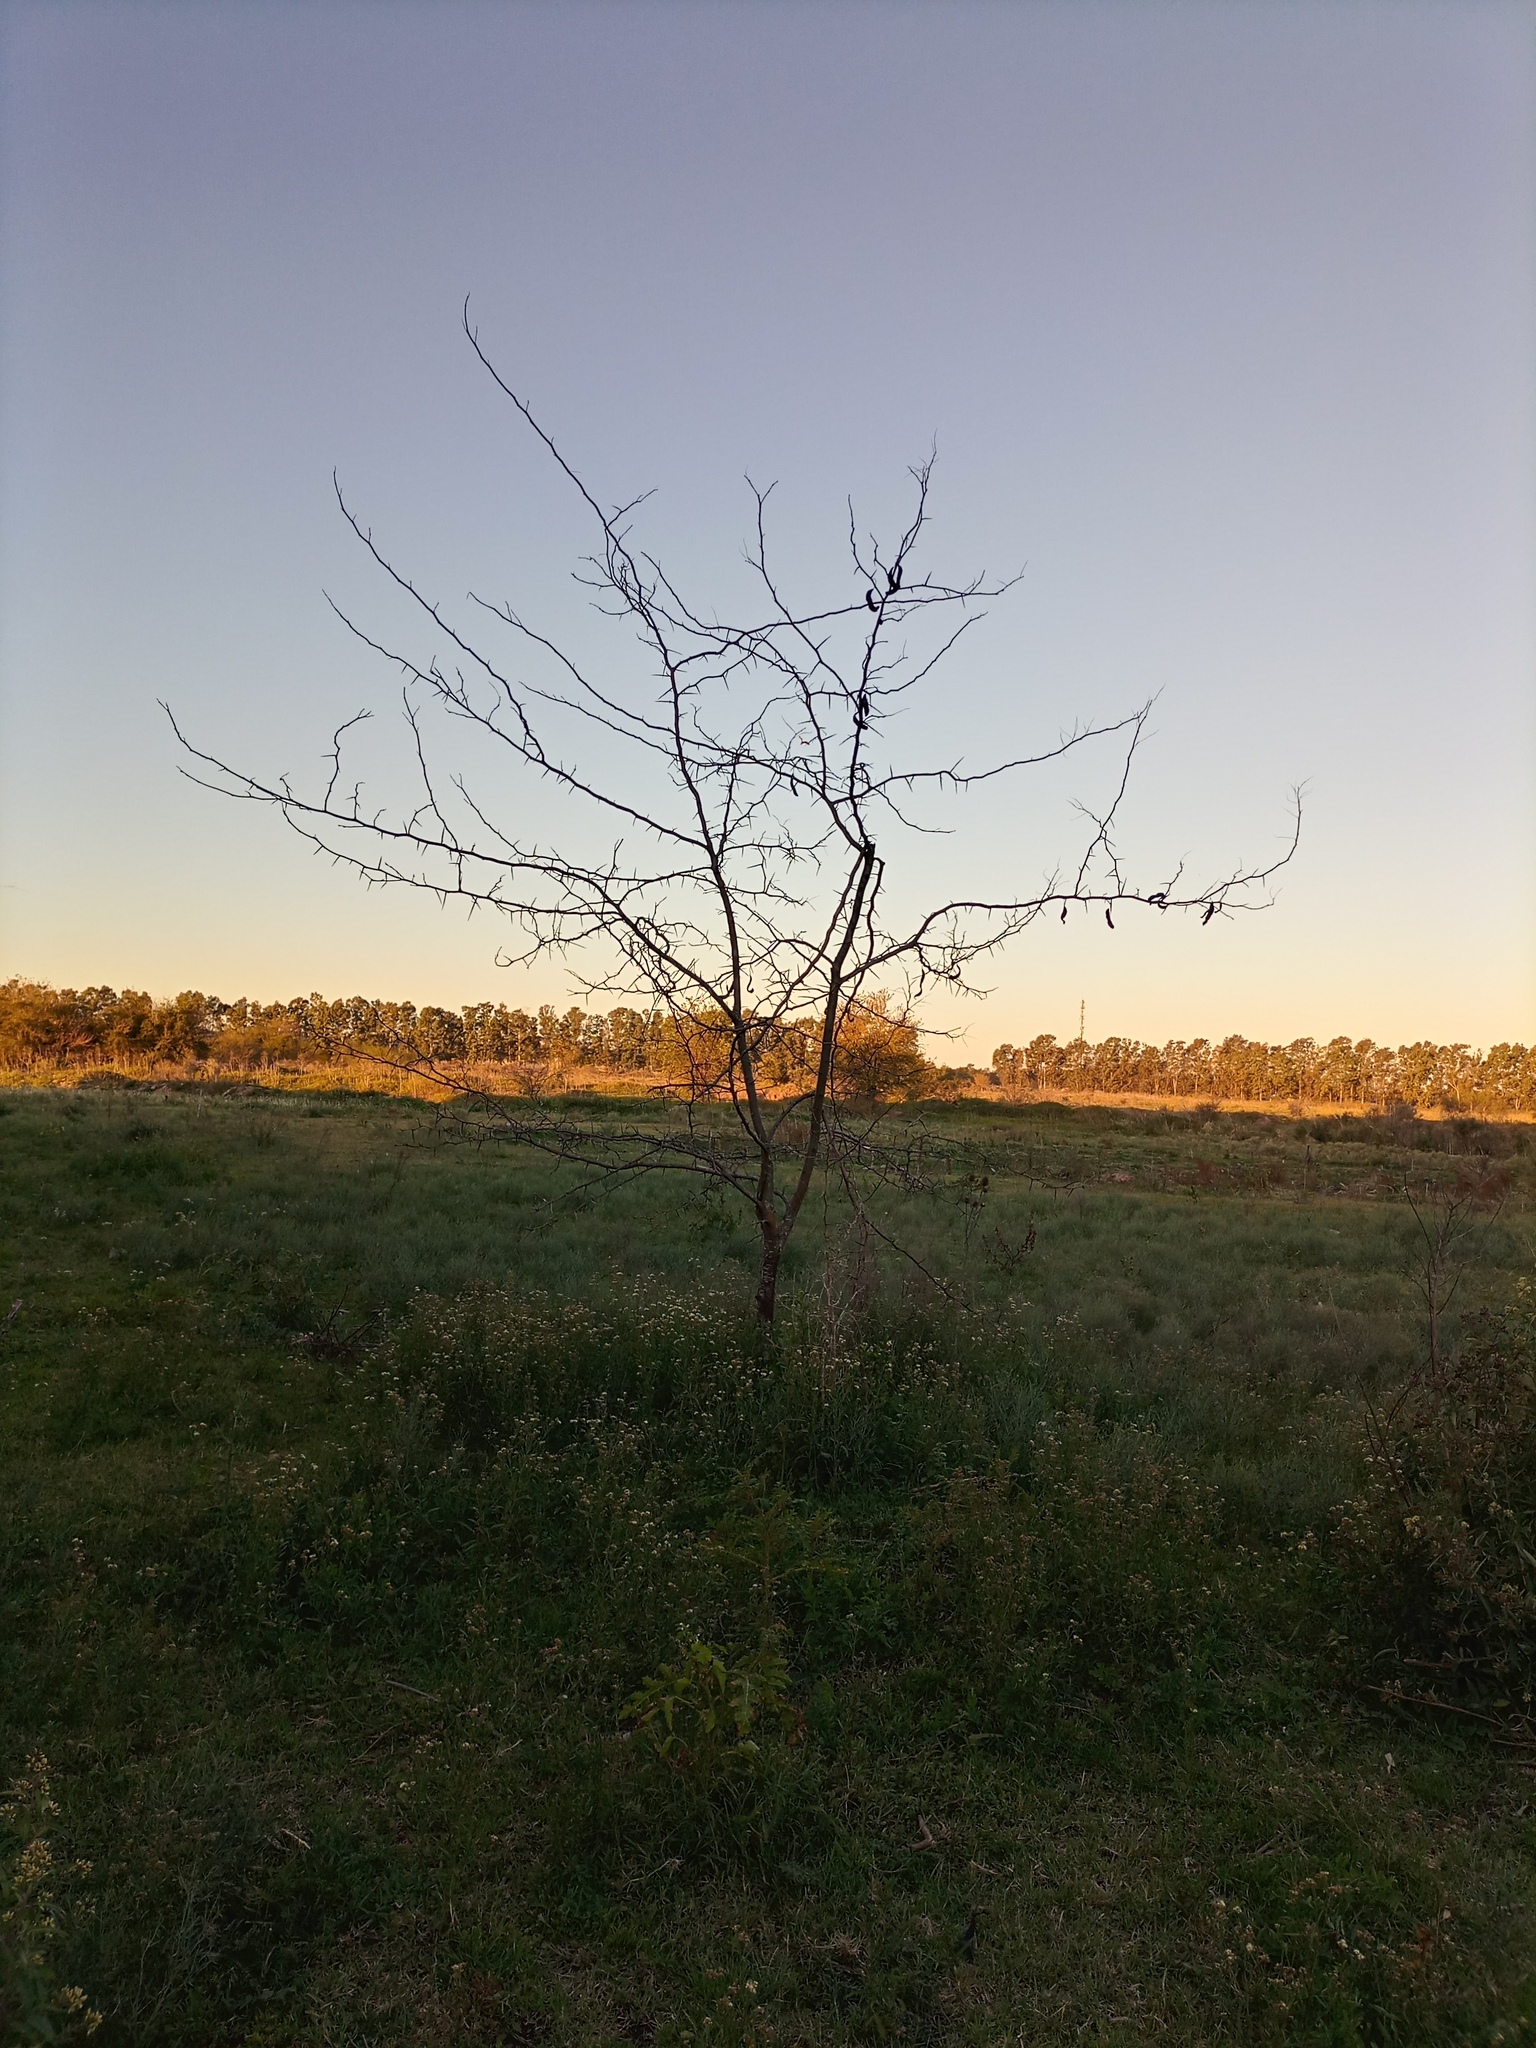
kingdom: Plantae
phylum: Tracheophyta
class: Magnoliopsida
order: Fabales
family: Fabaceae
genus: Gleditsia
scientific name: Gleditsia triacanthos
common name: Common honeylocust
